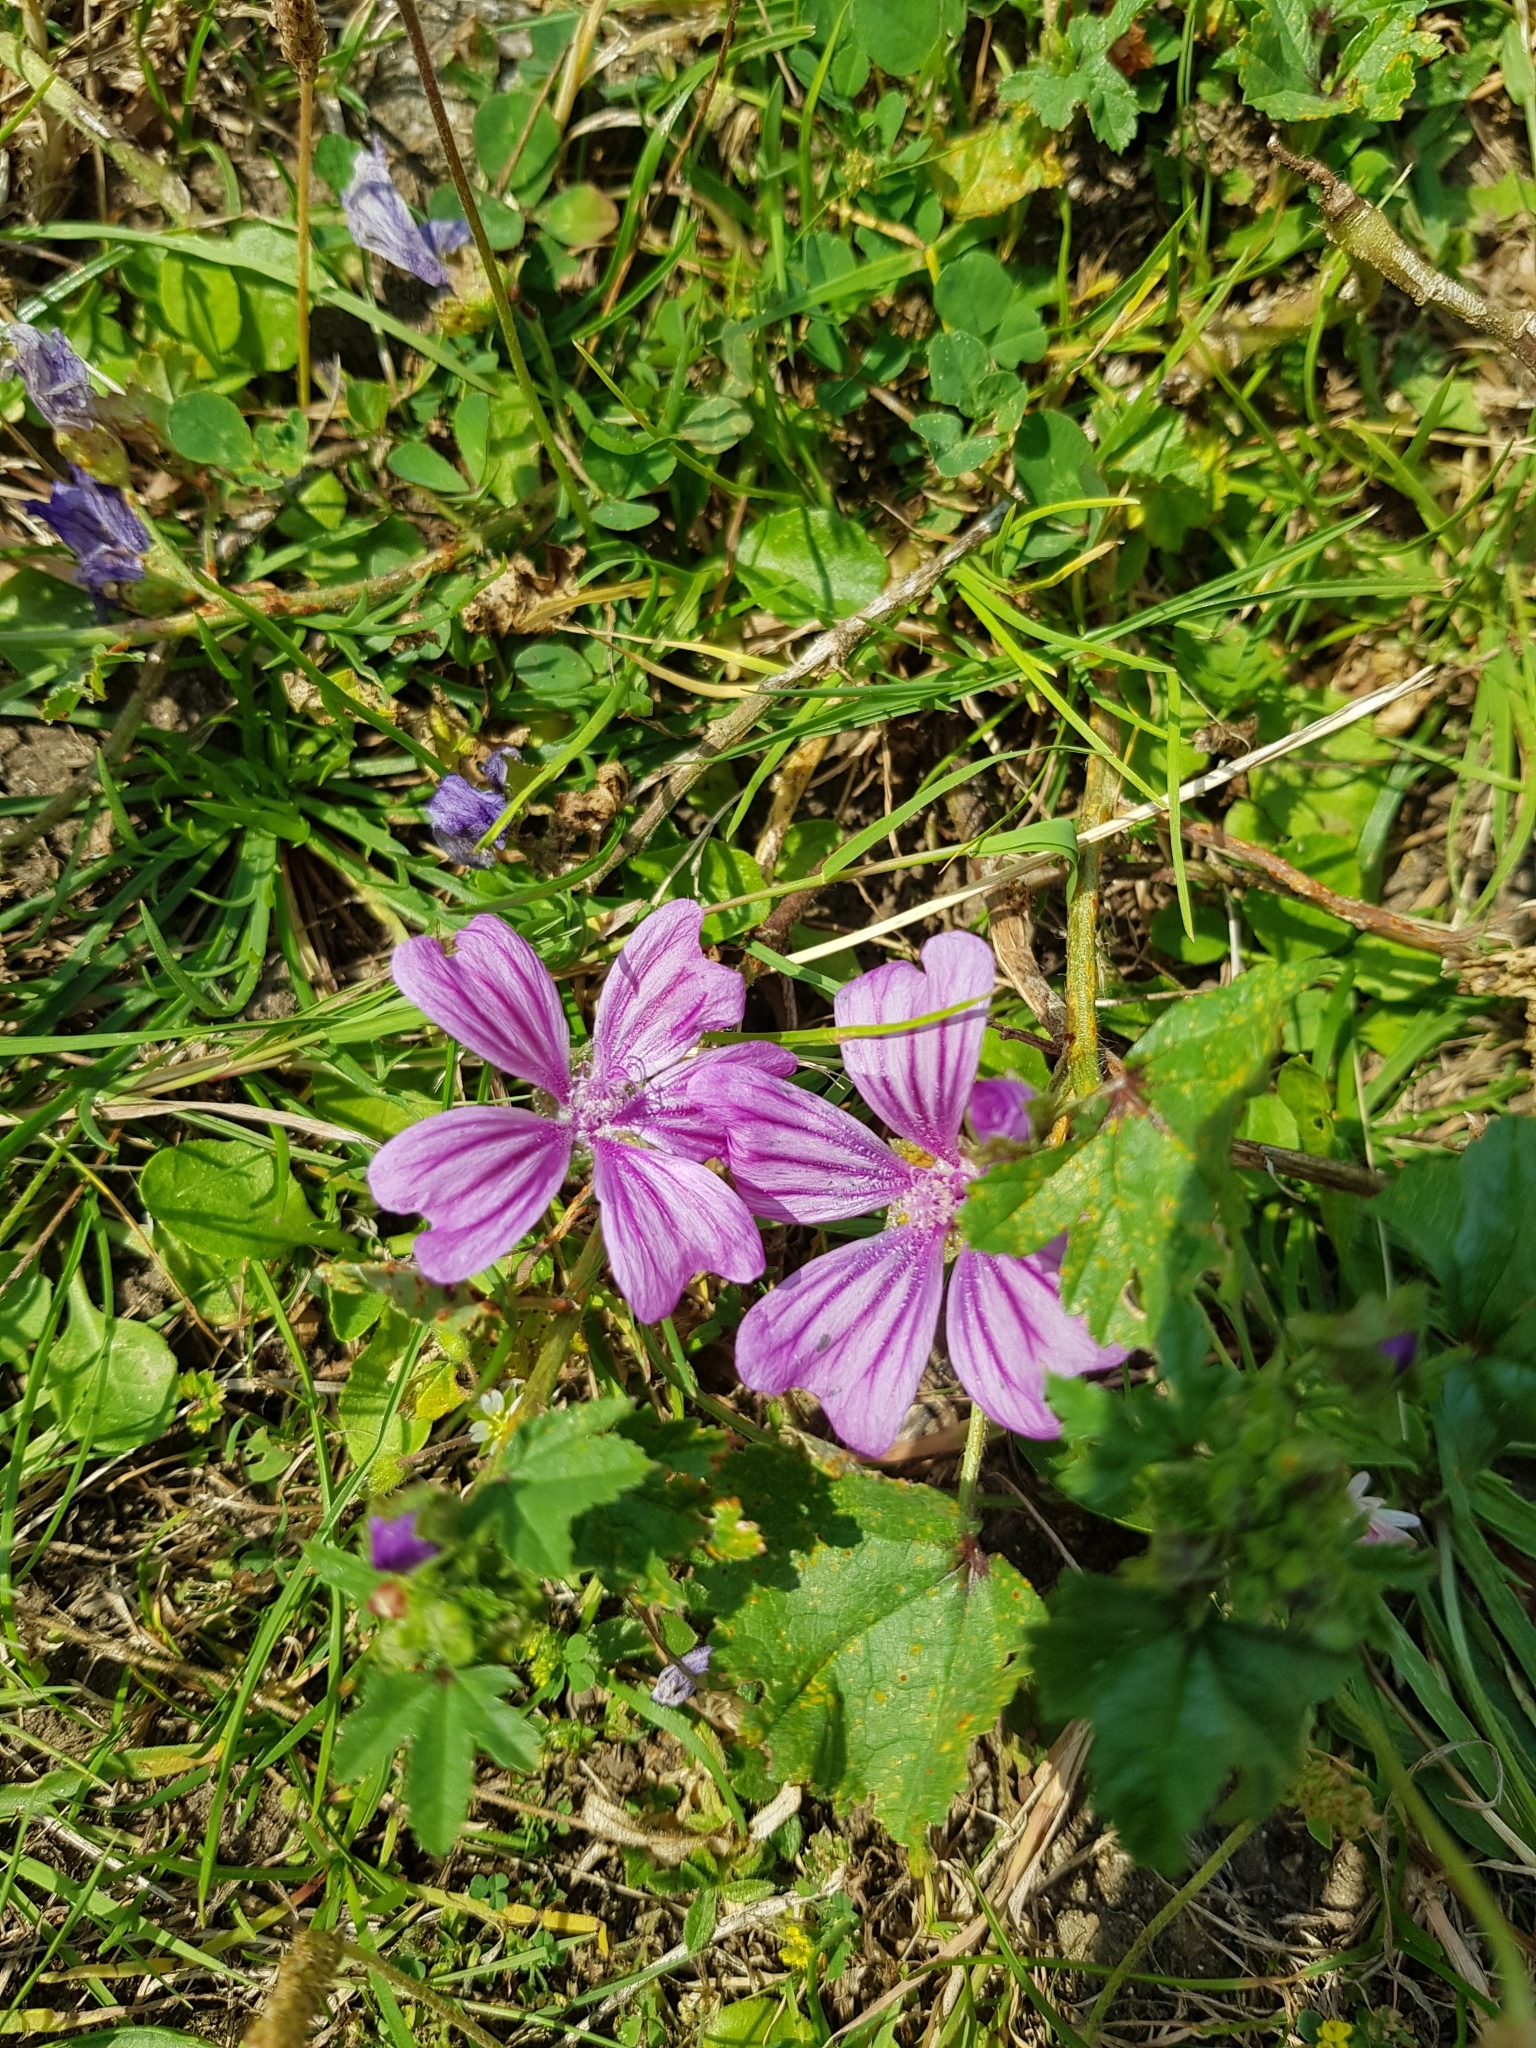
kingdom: Plantae
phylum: Tracheophyta
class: Magnoliopsida
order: Malvales
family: Malvaceae
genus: Malva
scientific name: Malva sylvestris
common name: Common mallow
